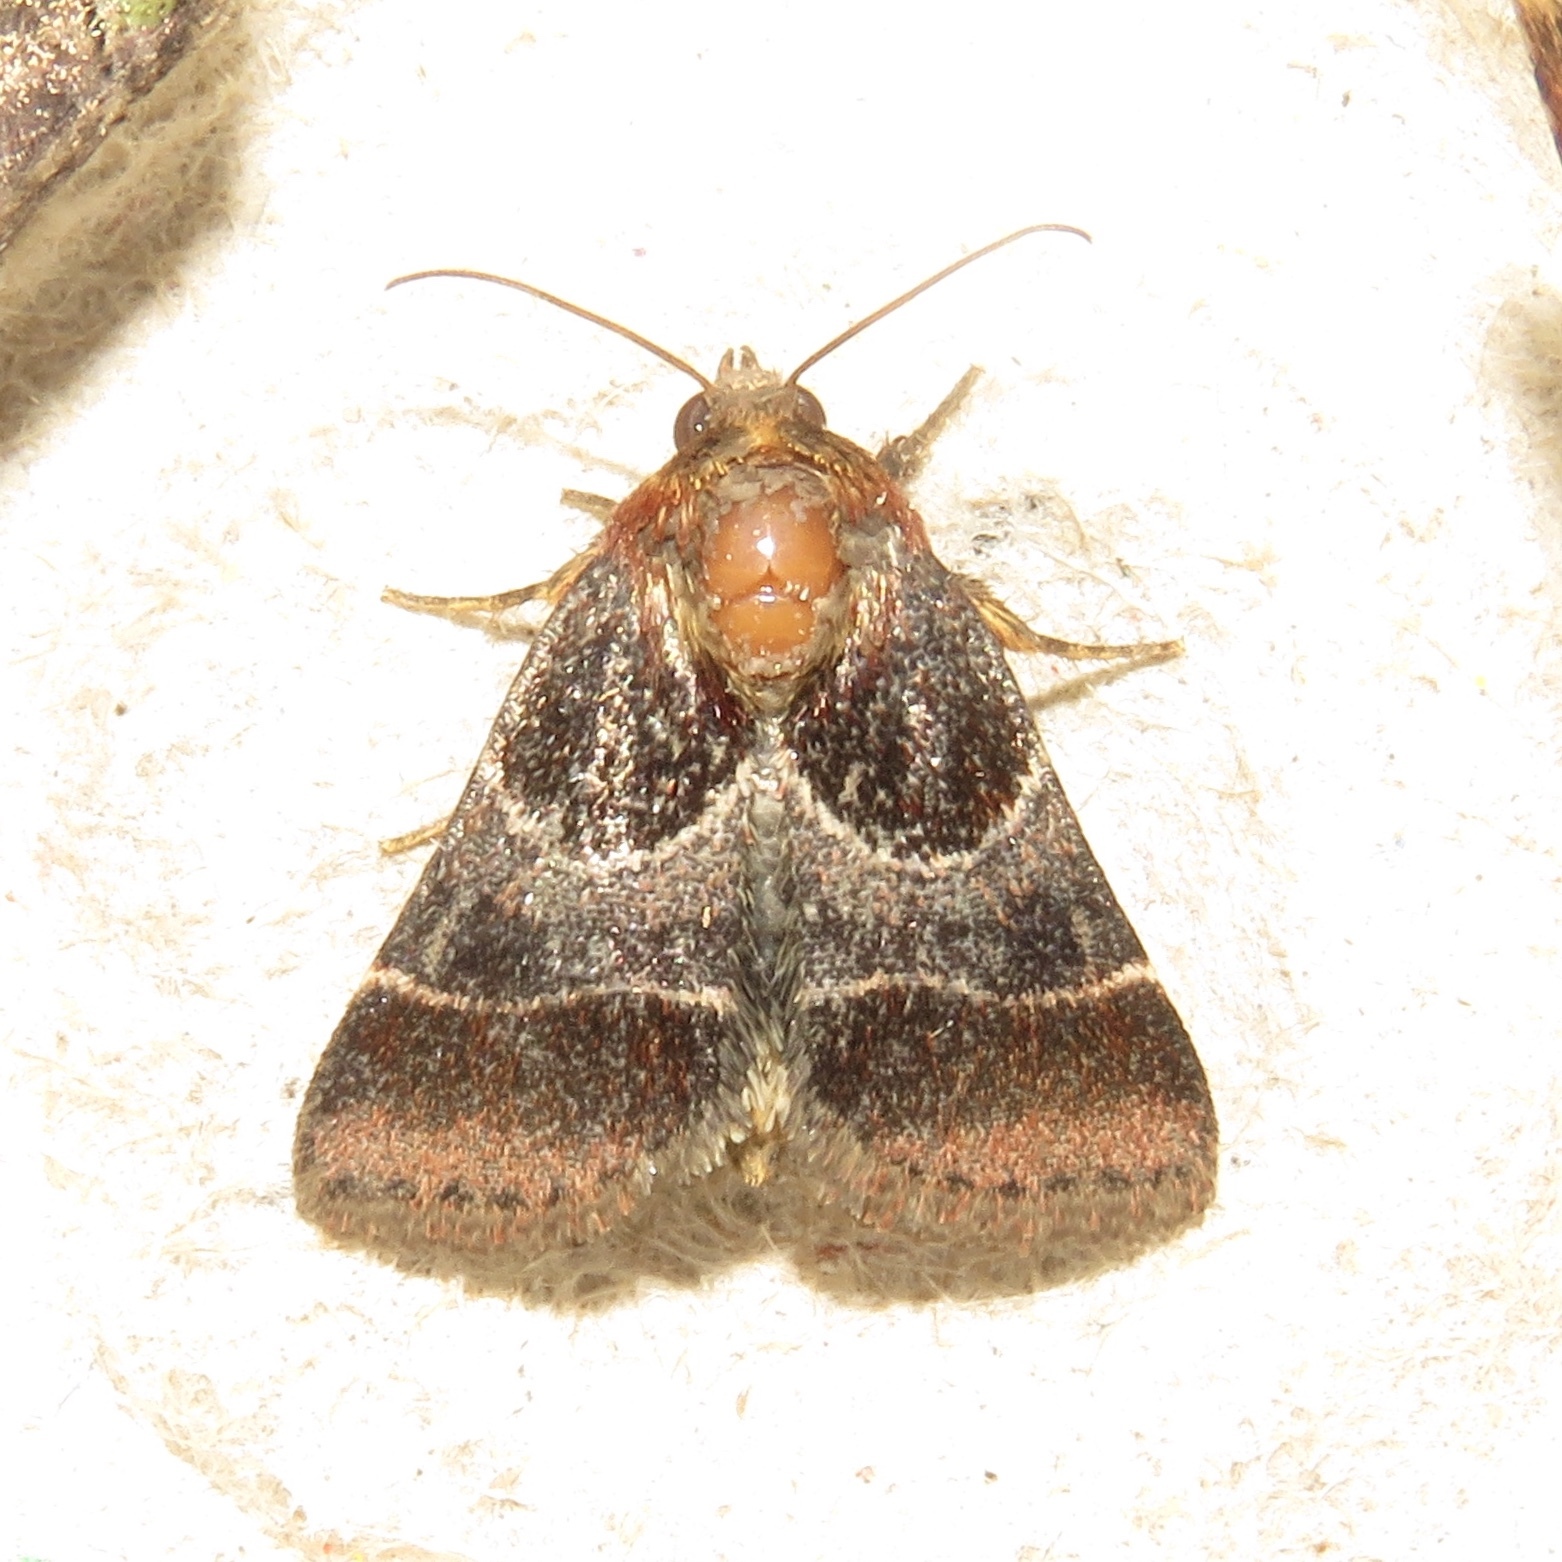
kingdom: Animalia
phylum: Arthropoda
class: Insecta
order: Lepidoptera
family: Noctuidae
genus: Schinia
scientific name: Schinia arcigera
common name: Arcigera flower moth
